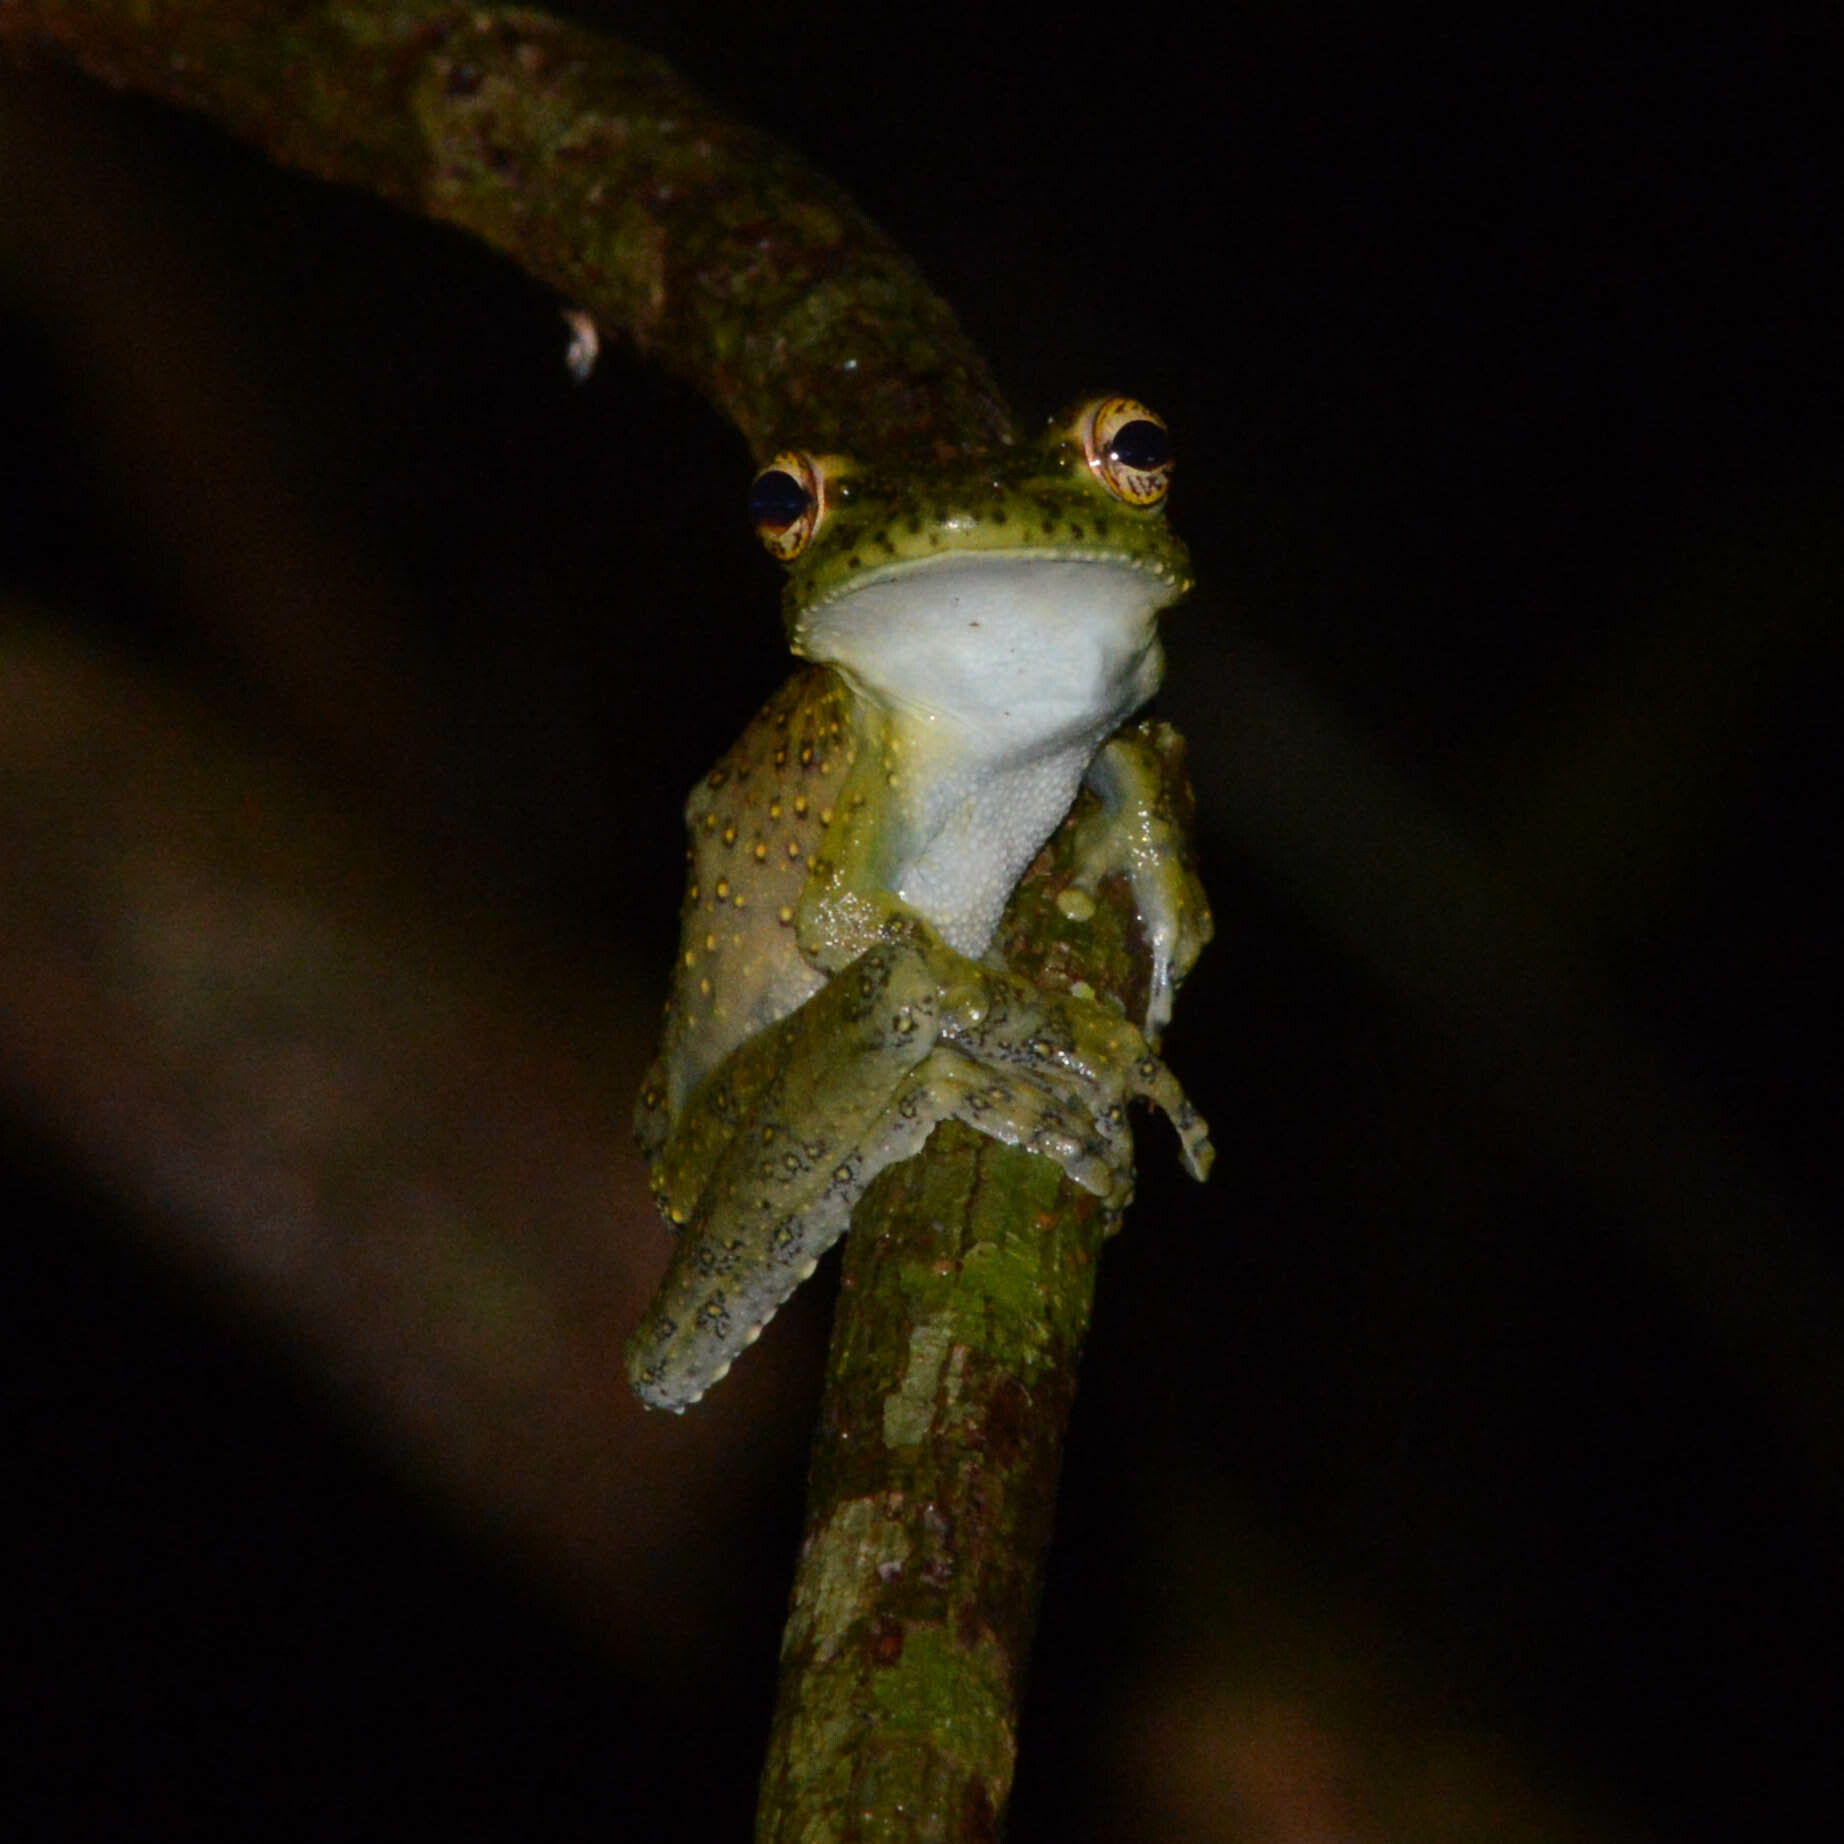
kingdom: Animalia
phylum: Chordata
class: Amphibia
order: Anura
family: Hylidae
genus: Itapotihyla
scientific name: Itapotihyla langsdorffii
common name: Ocellated treefrog
